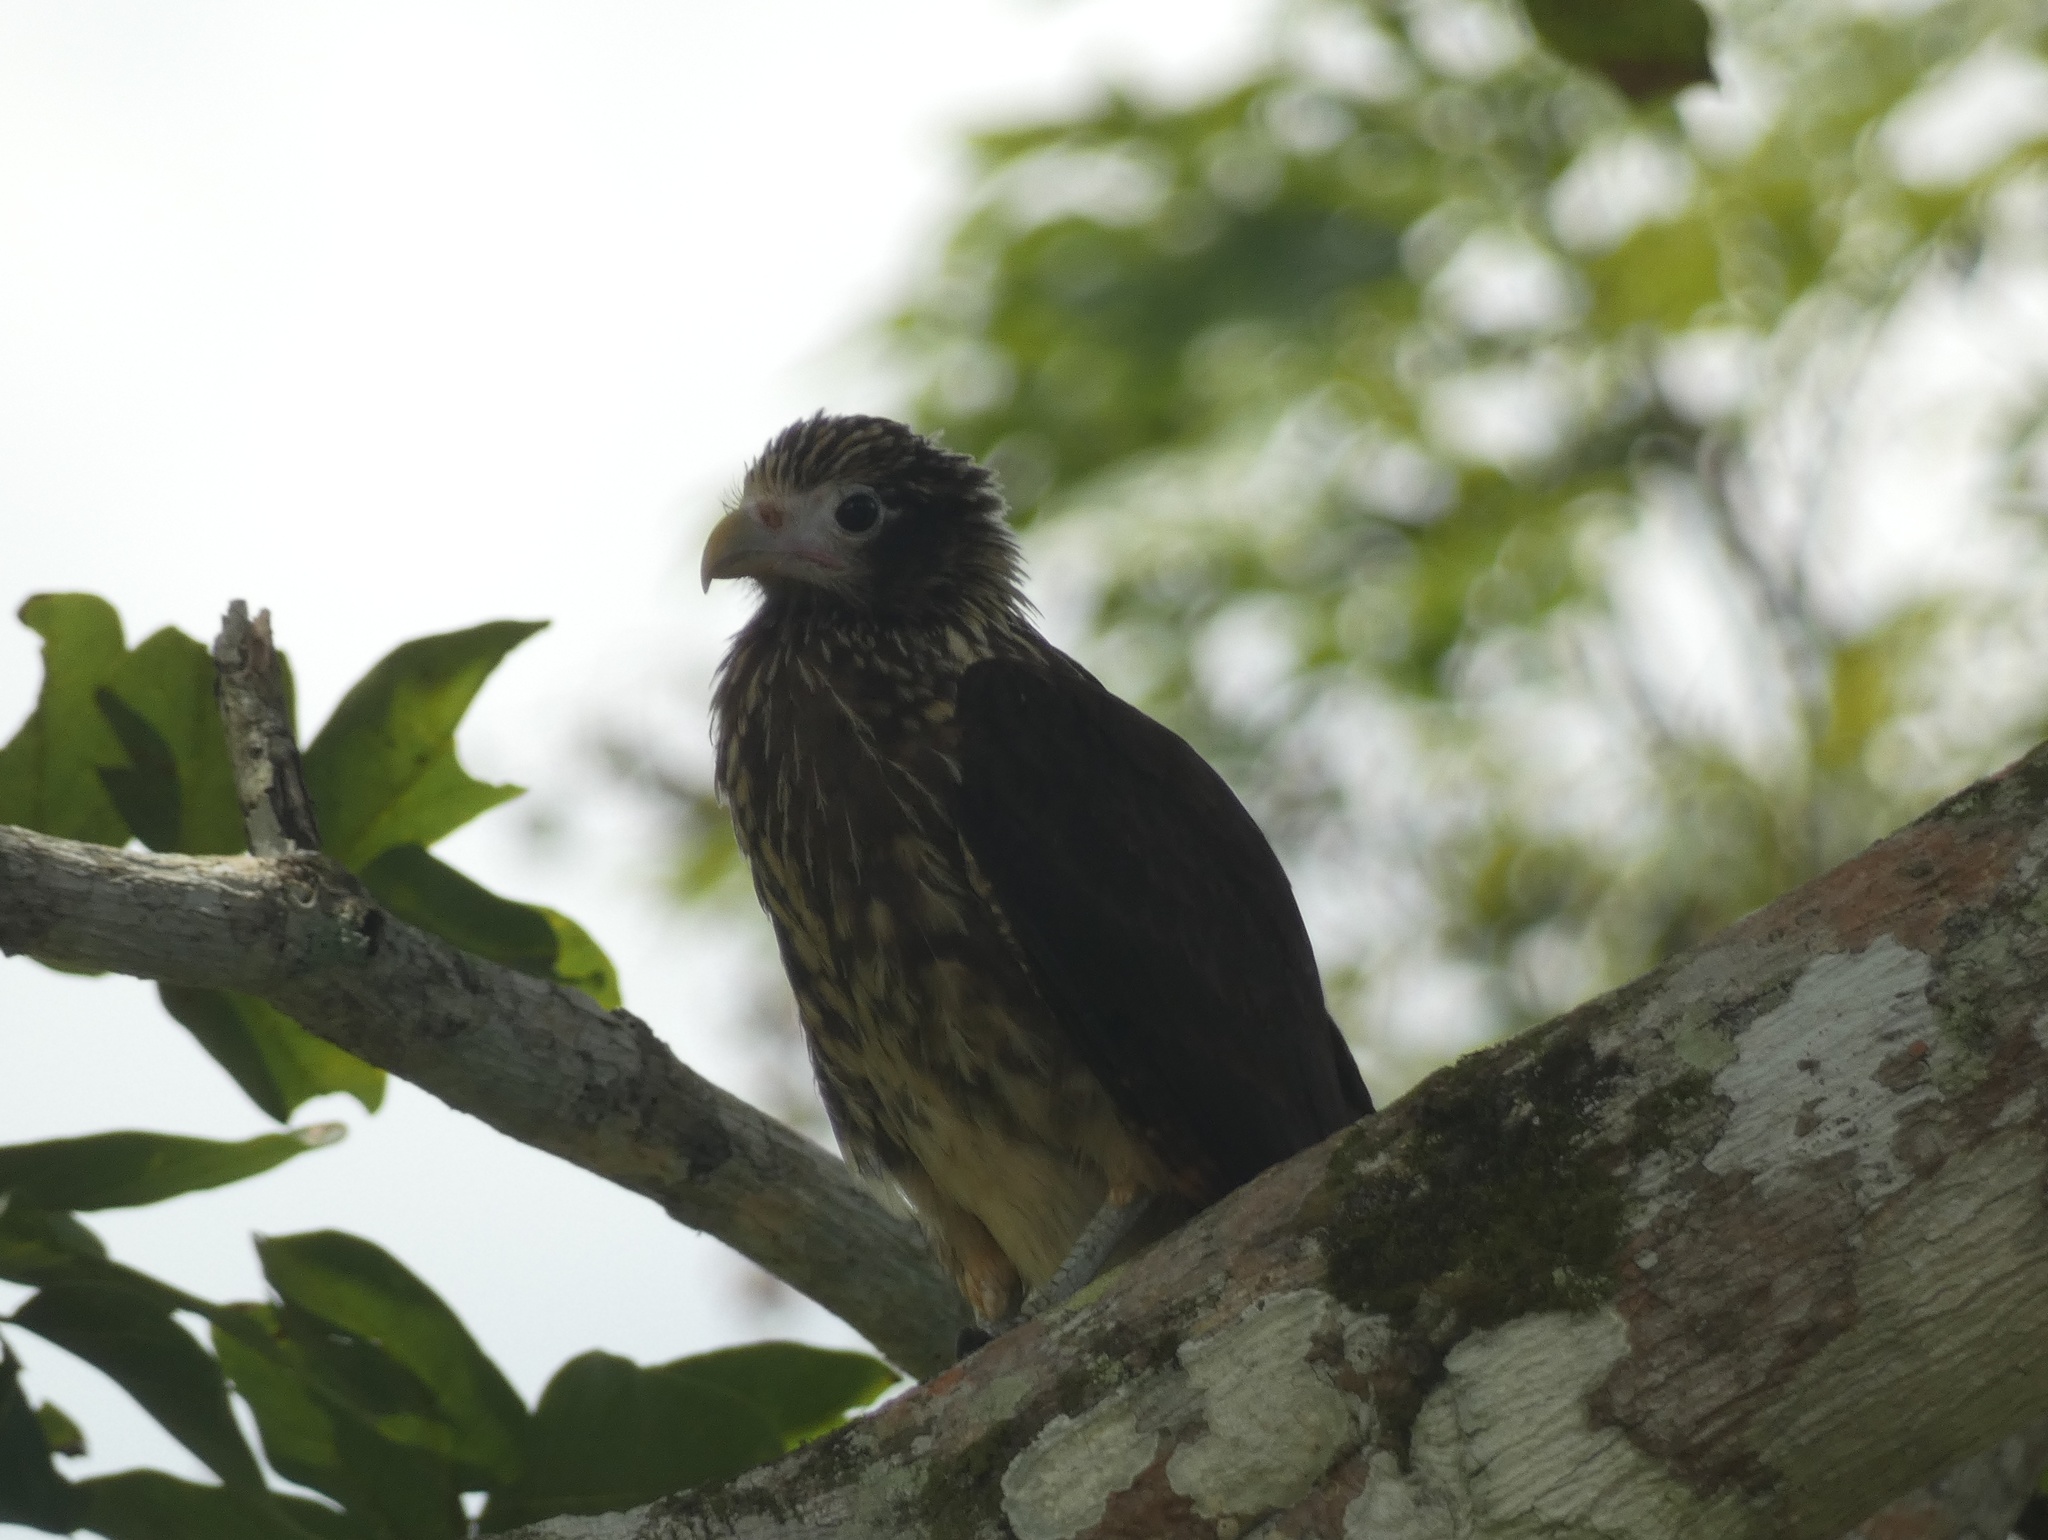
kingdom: Animalia
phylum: Chordata
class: Aves
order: Falconiformes
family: Falconidae
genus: Daptrius
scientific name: Daptrius
